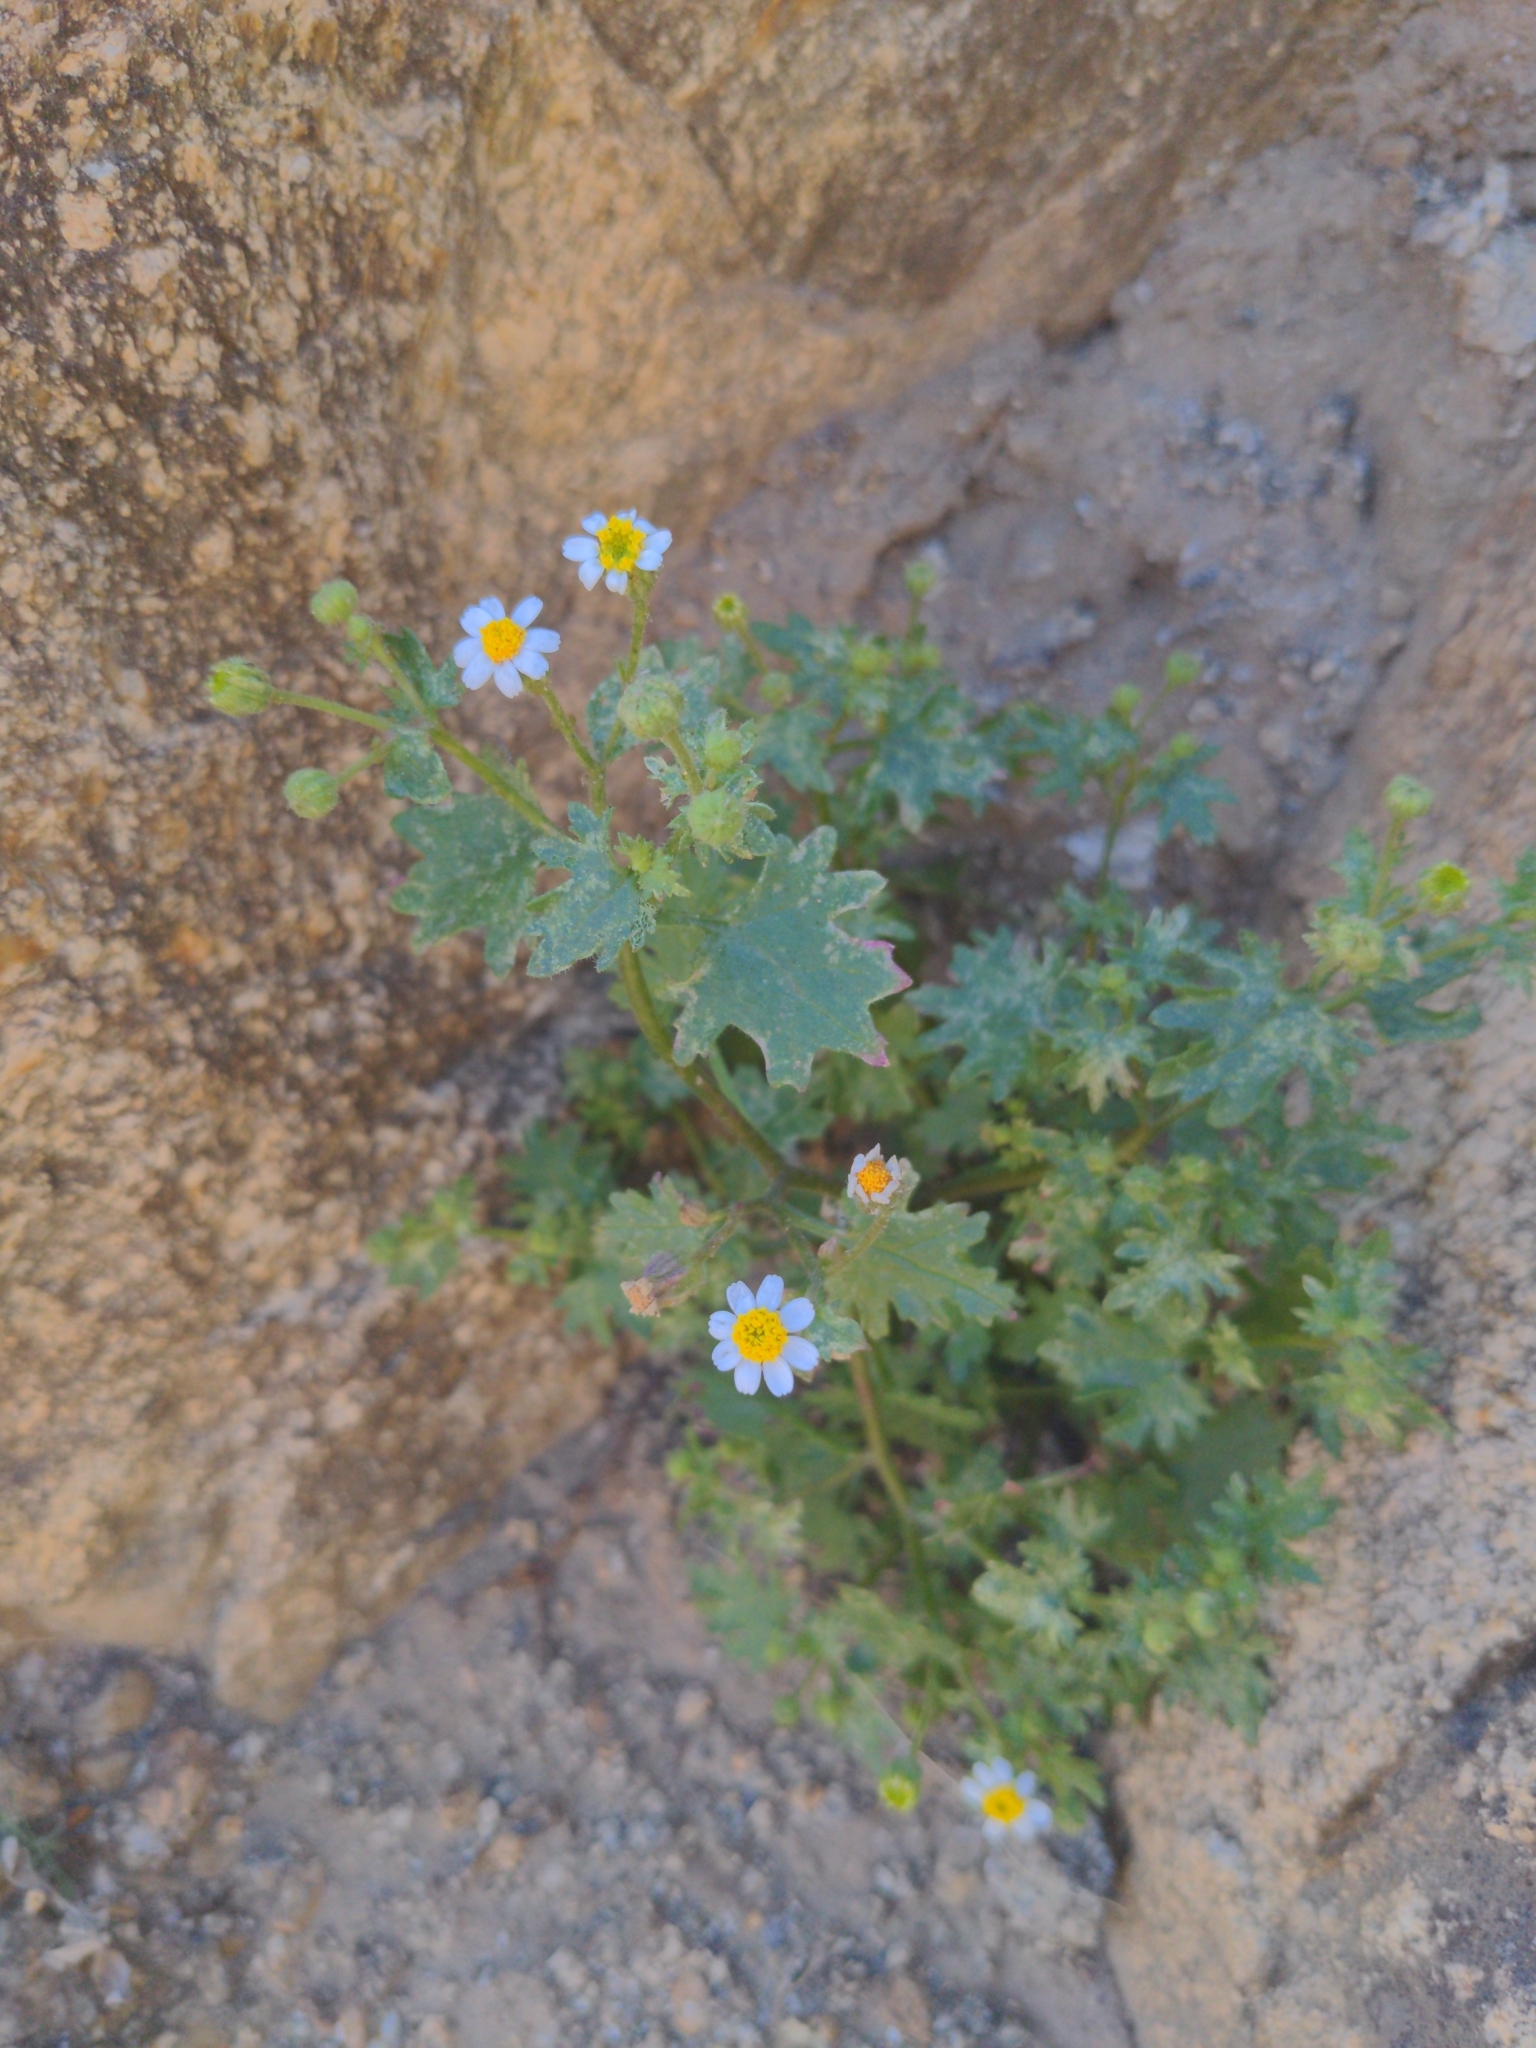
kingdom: Plantae
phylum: Tracheophyta
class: Magnoliopsida
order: Asterales
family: Asteraceae
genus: Laphamia
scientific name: Laphamia emoryi
